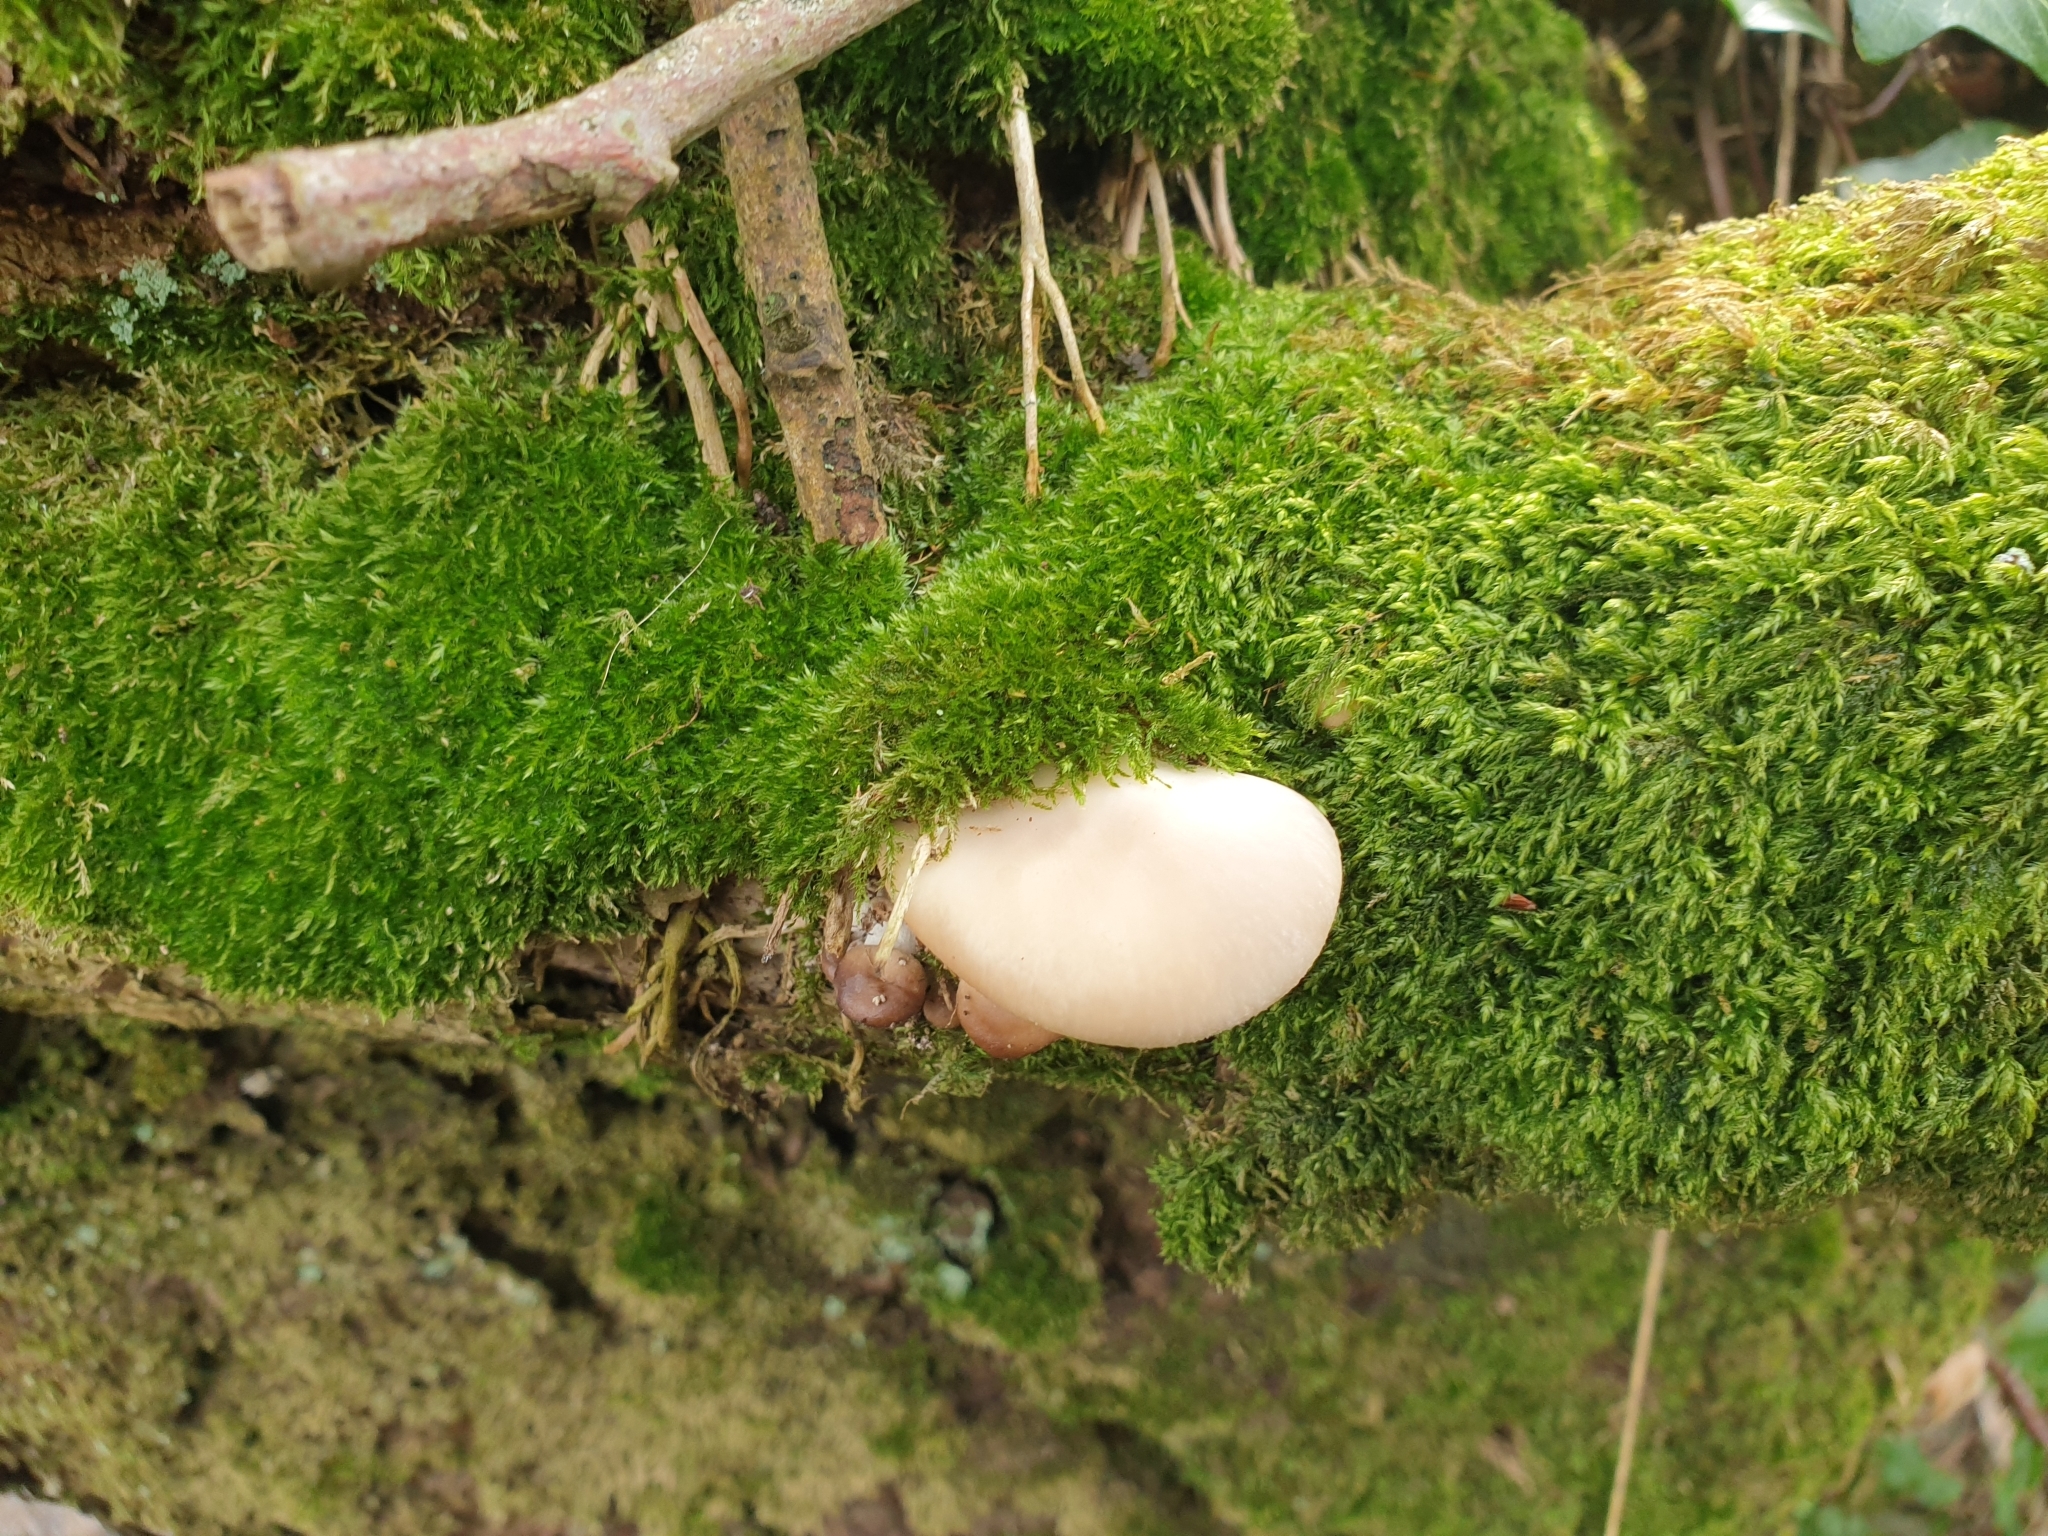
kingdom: Fungi
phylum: Basidiomycota
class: Agaricomycetes
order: Agaricales
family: Pleurotaceae
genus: Pleurotus
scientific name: Pleurotus ostreatus
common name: Oyster mushroom
